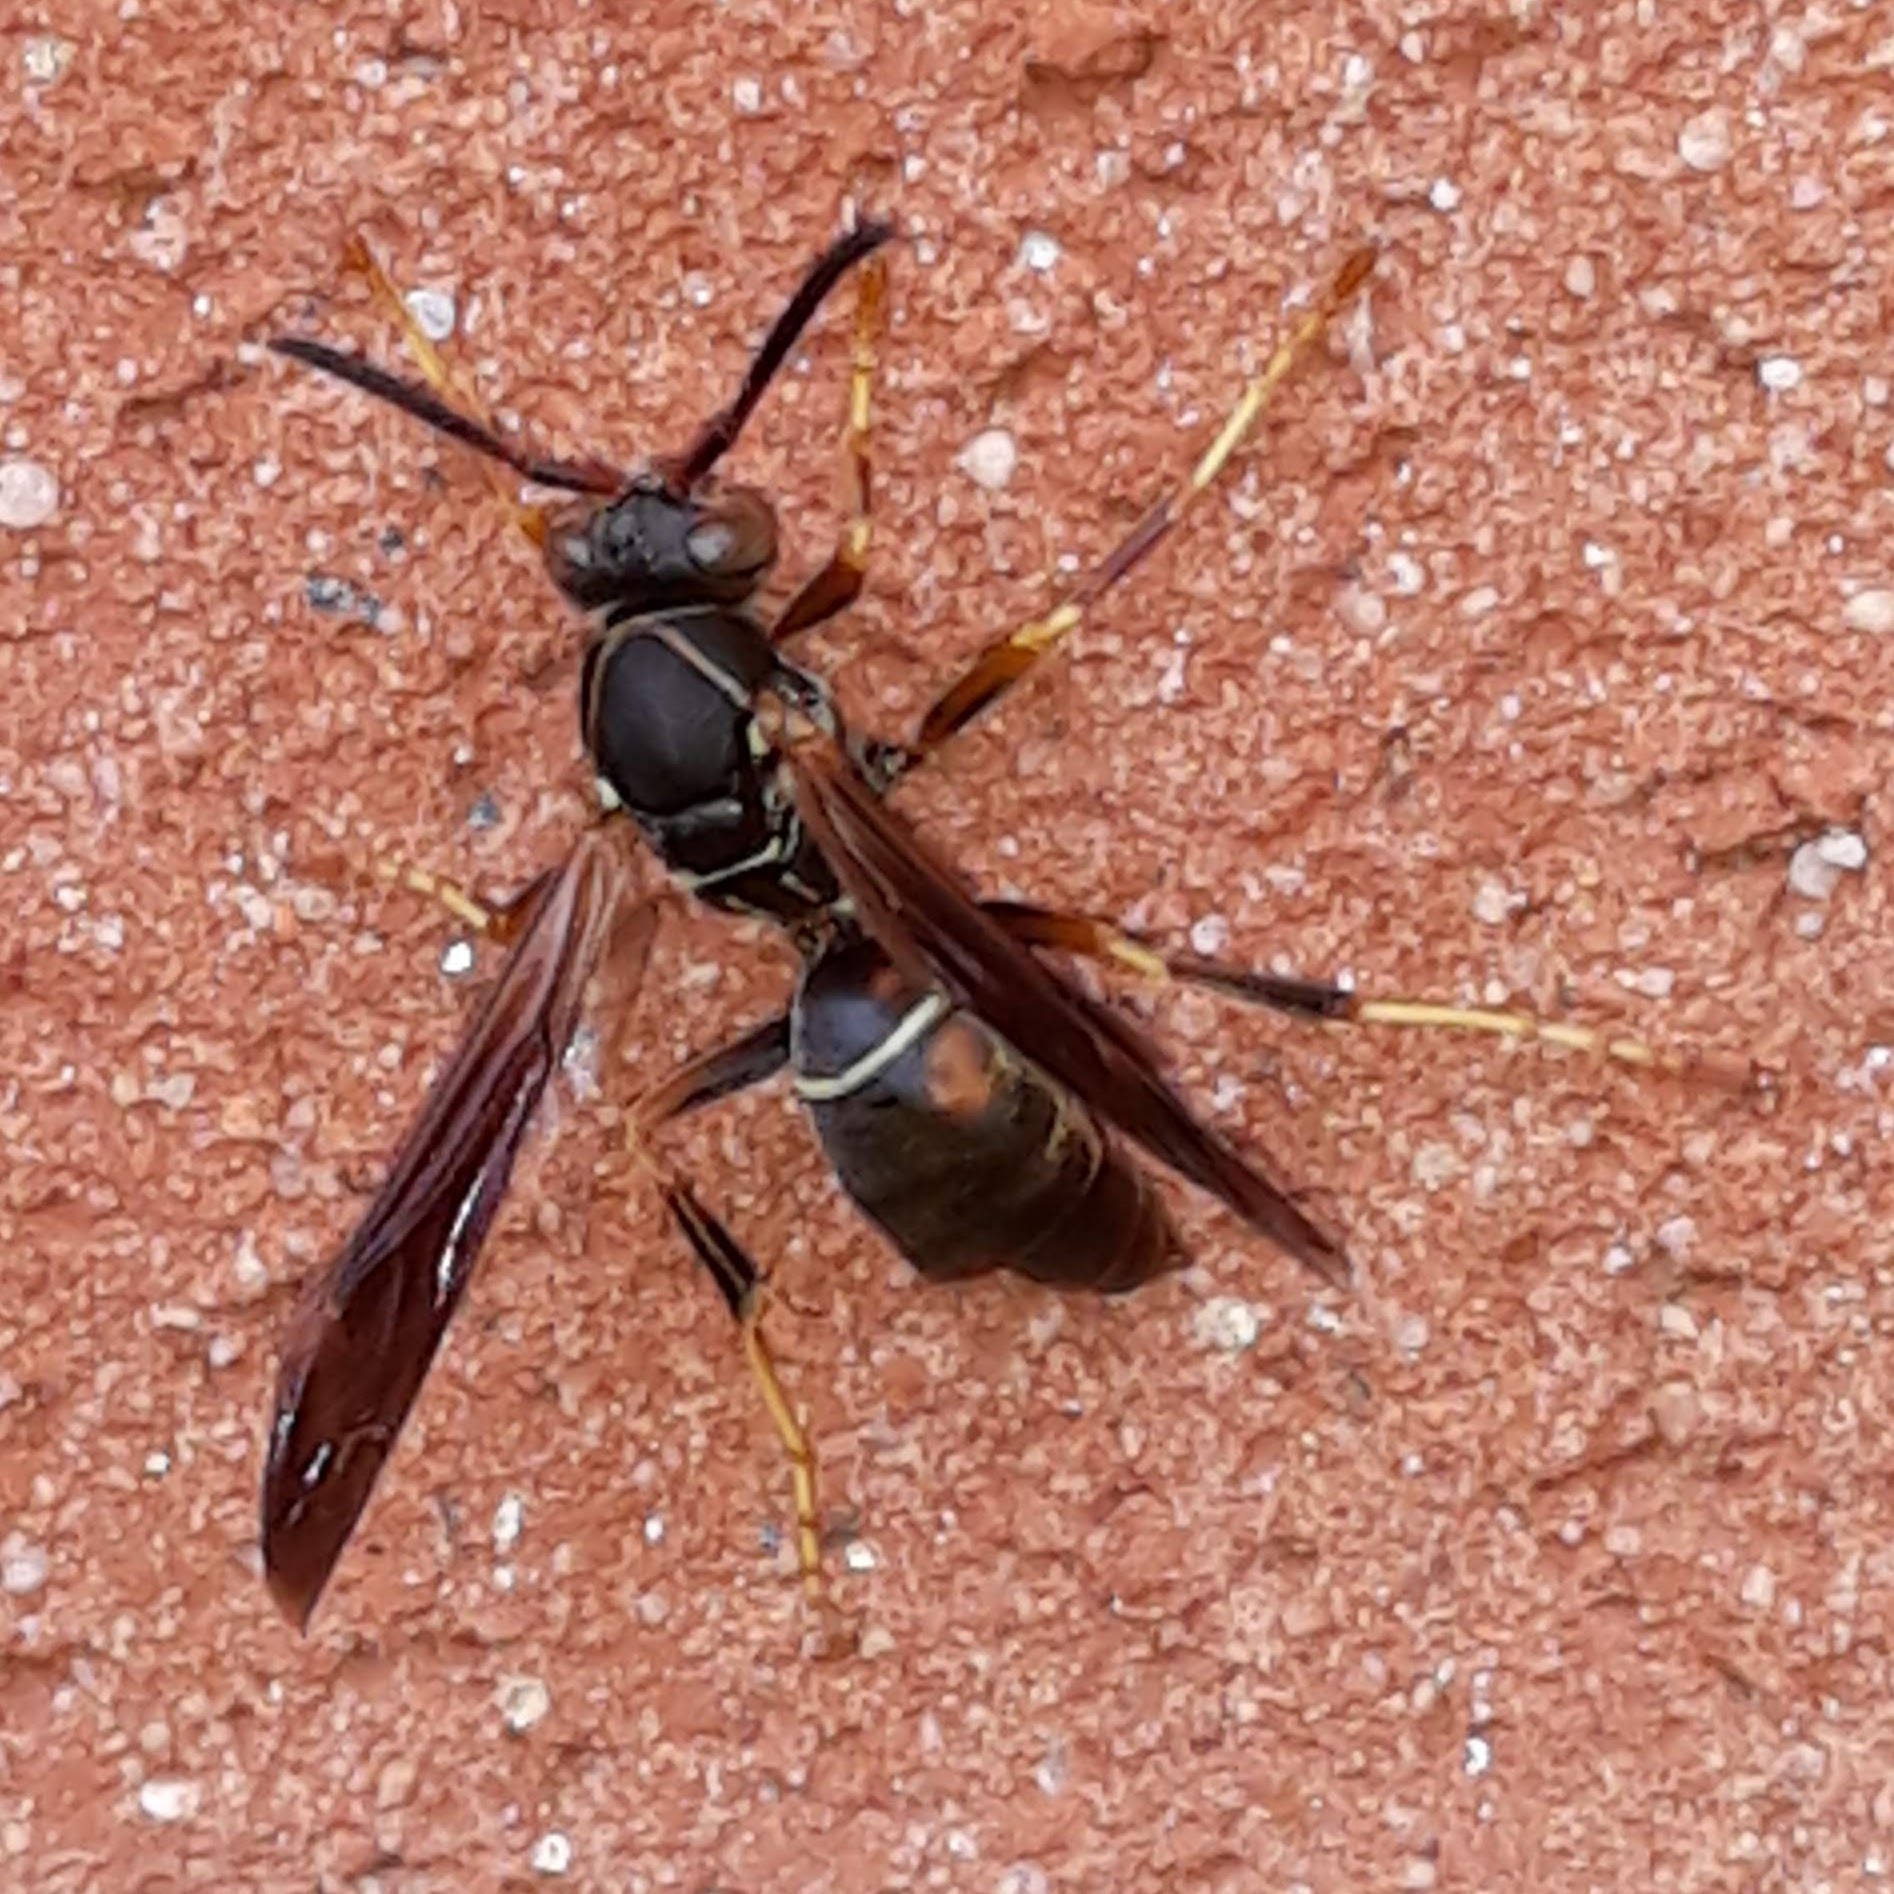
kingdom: Animalia
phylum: Arthropoda
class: Insecta
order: Hymenoptera
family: Eumenidae
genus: Polistes
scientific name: Polistes fuscatus
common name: Dark paper wasp
